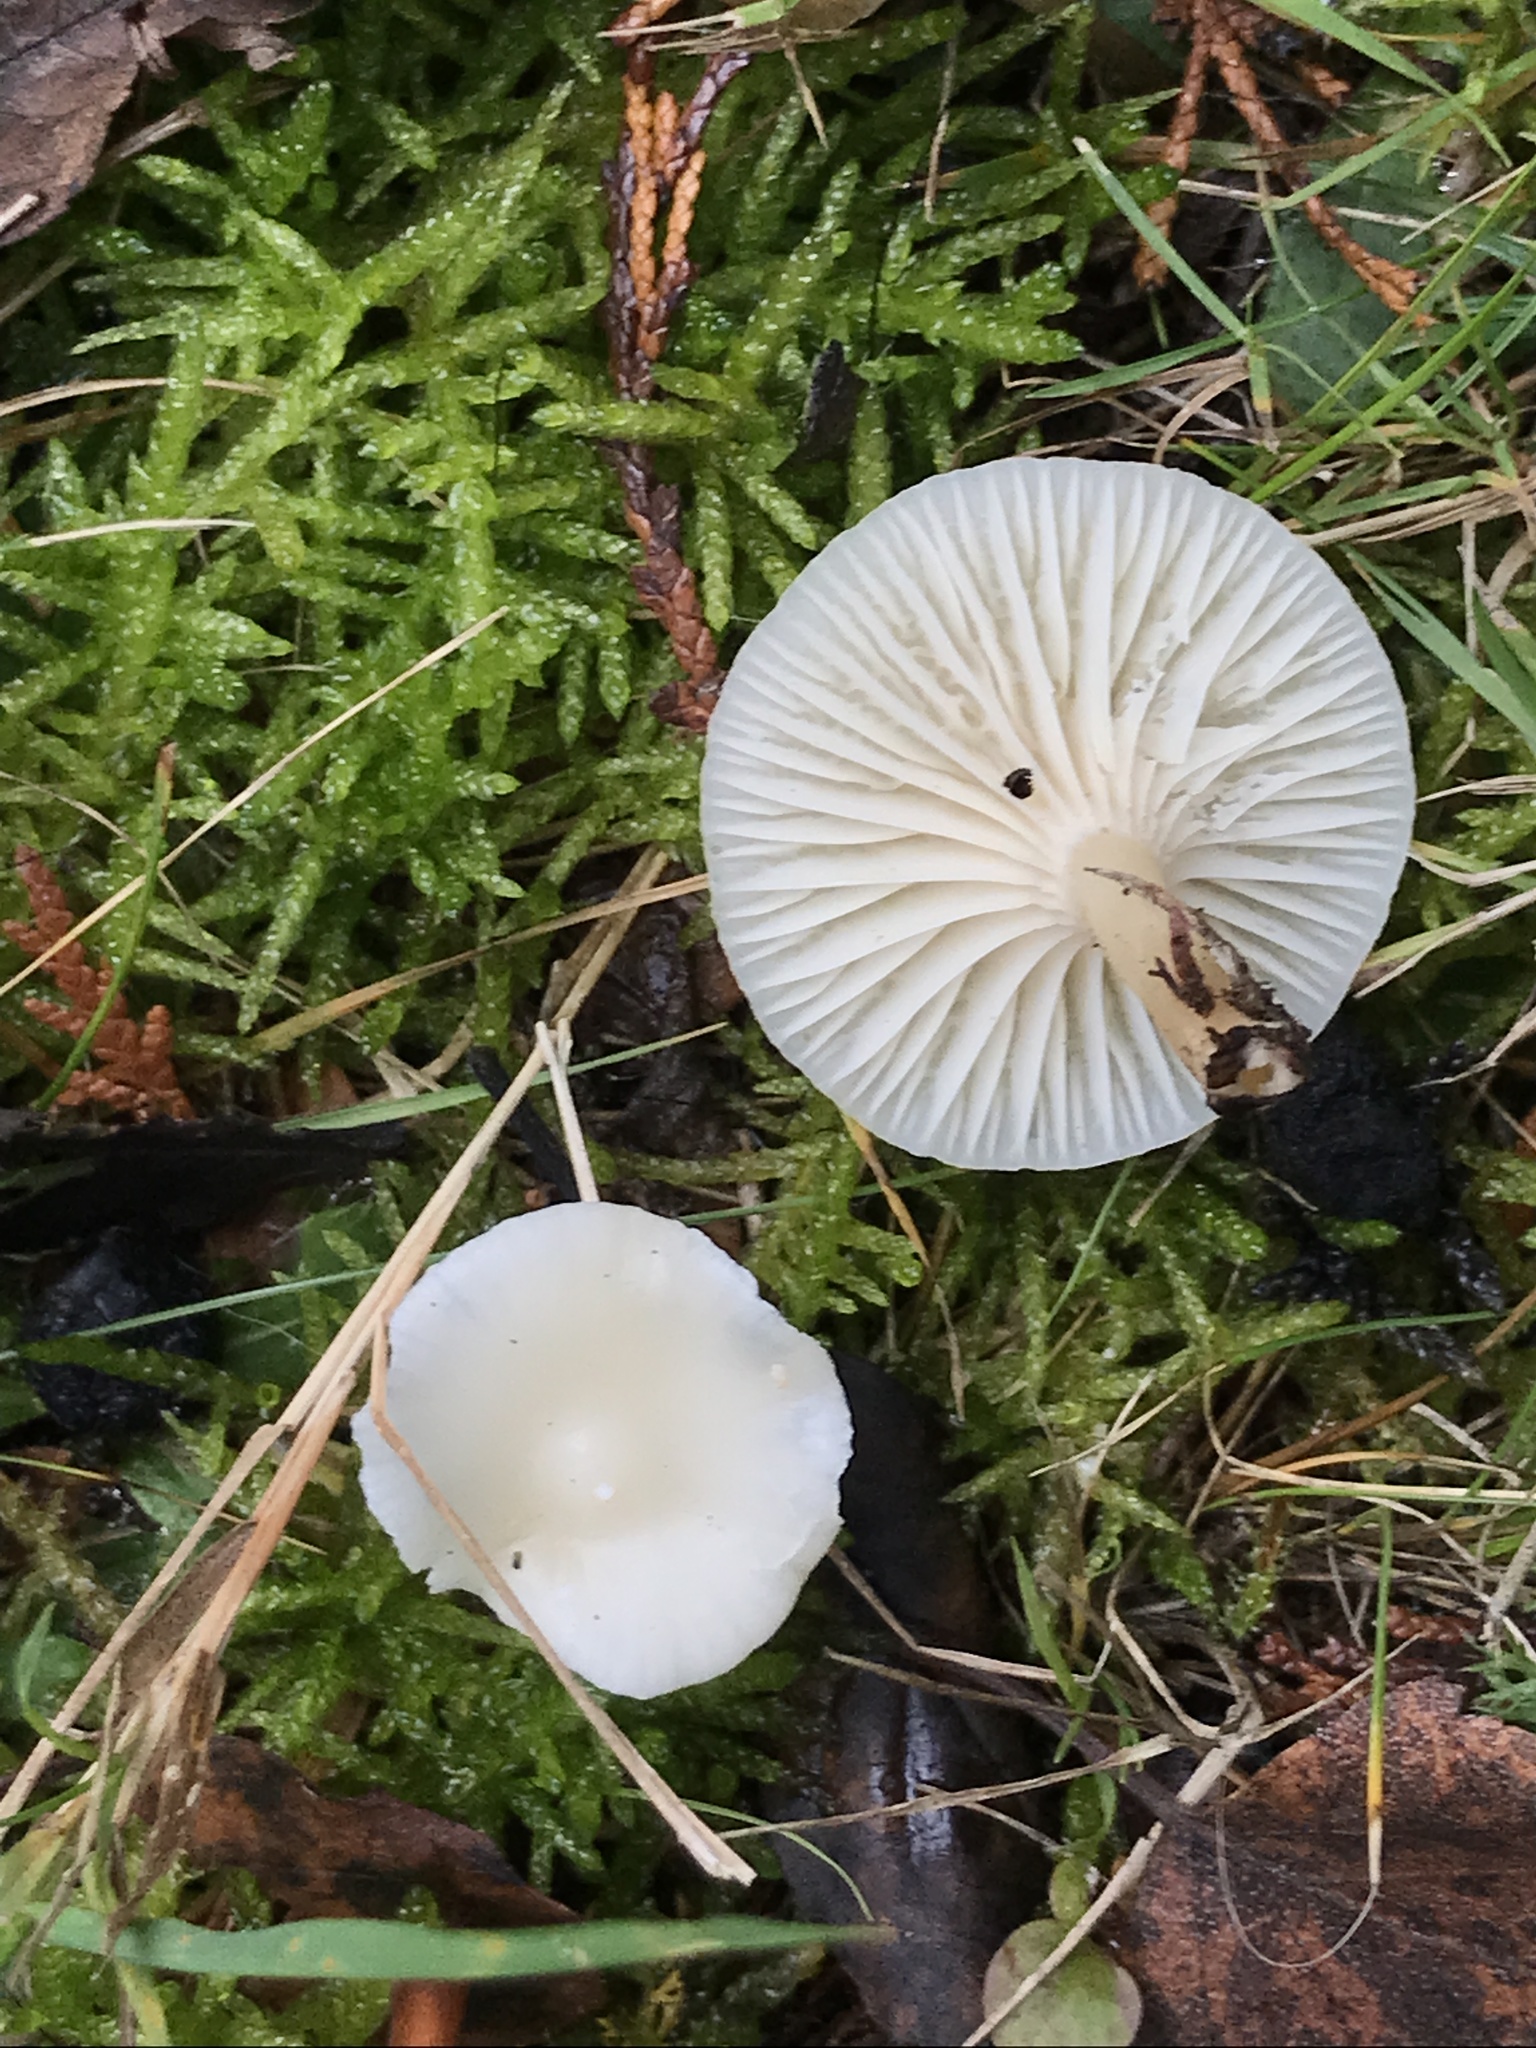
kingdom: Fungi
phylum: Basidiomycota
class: Agaricomycetes
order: Agaricales
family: Hygrophoraceae
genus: Cuphophyllus
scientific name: Cuphophyllus virgineus
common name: Snowy waxcap
